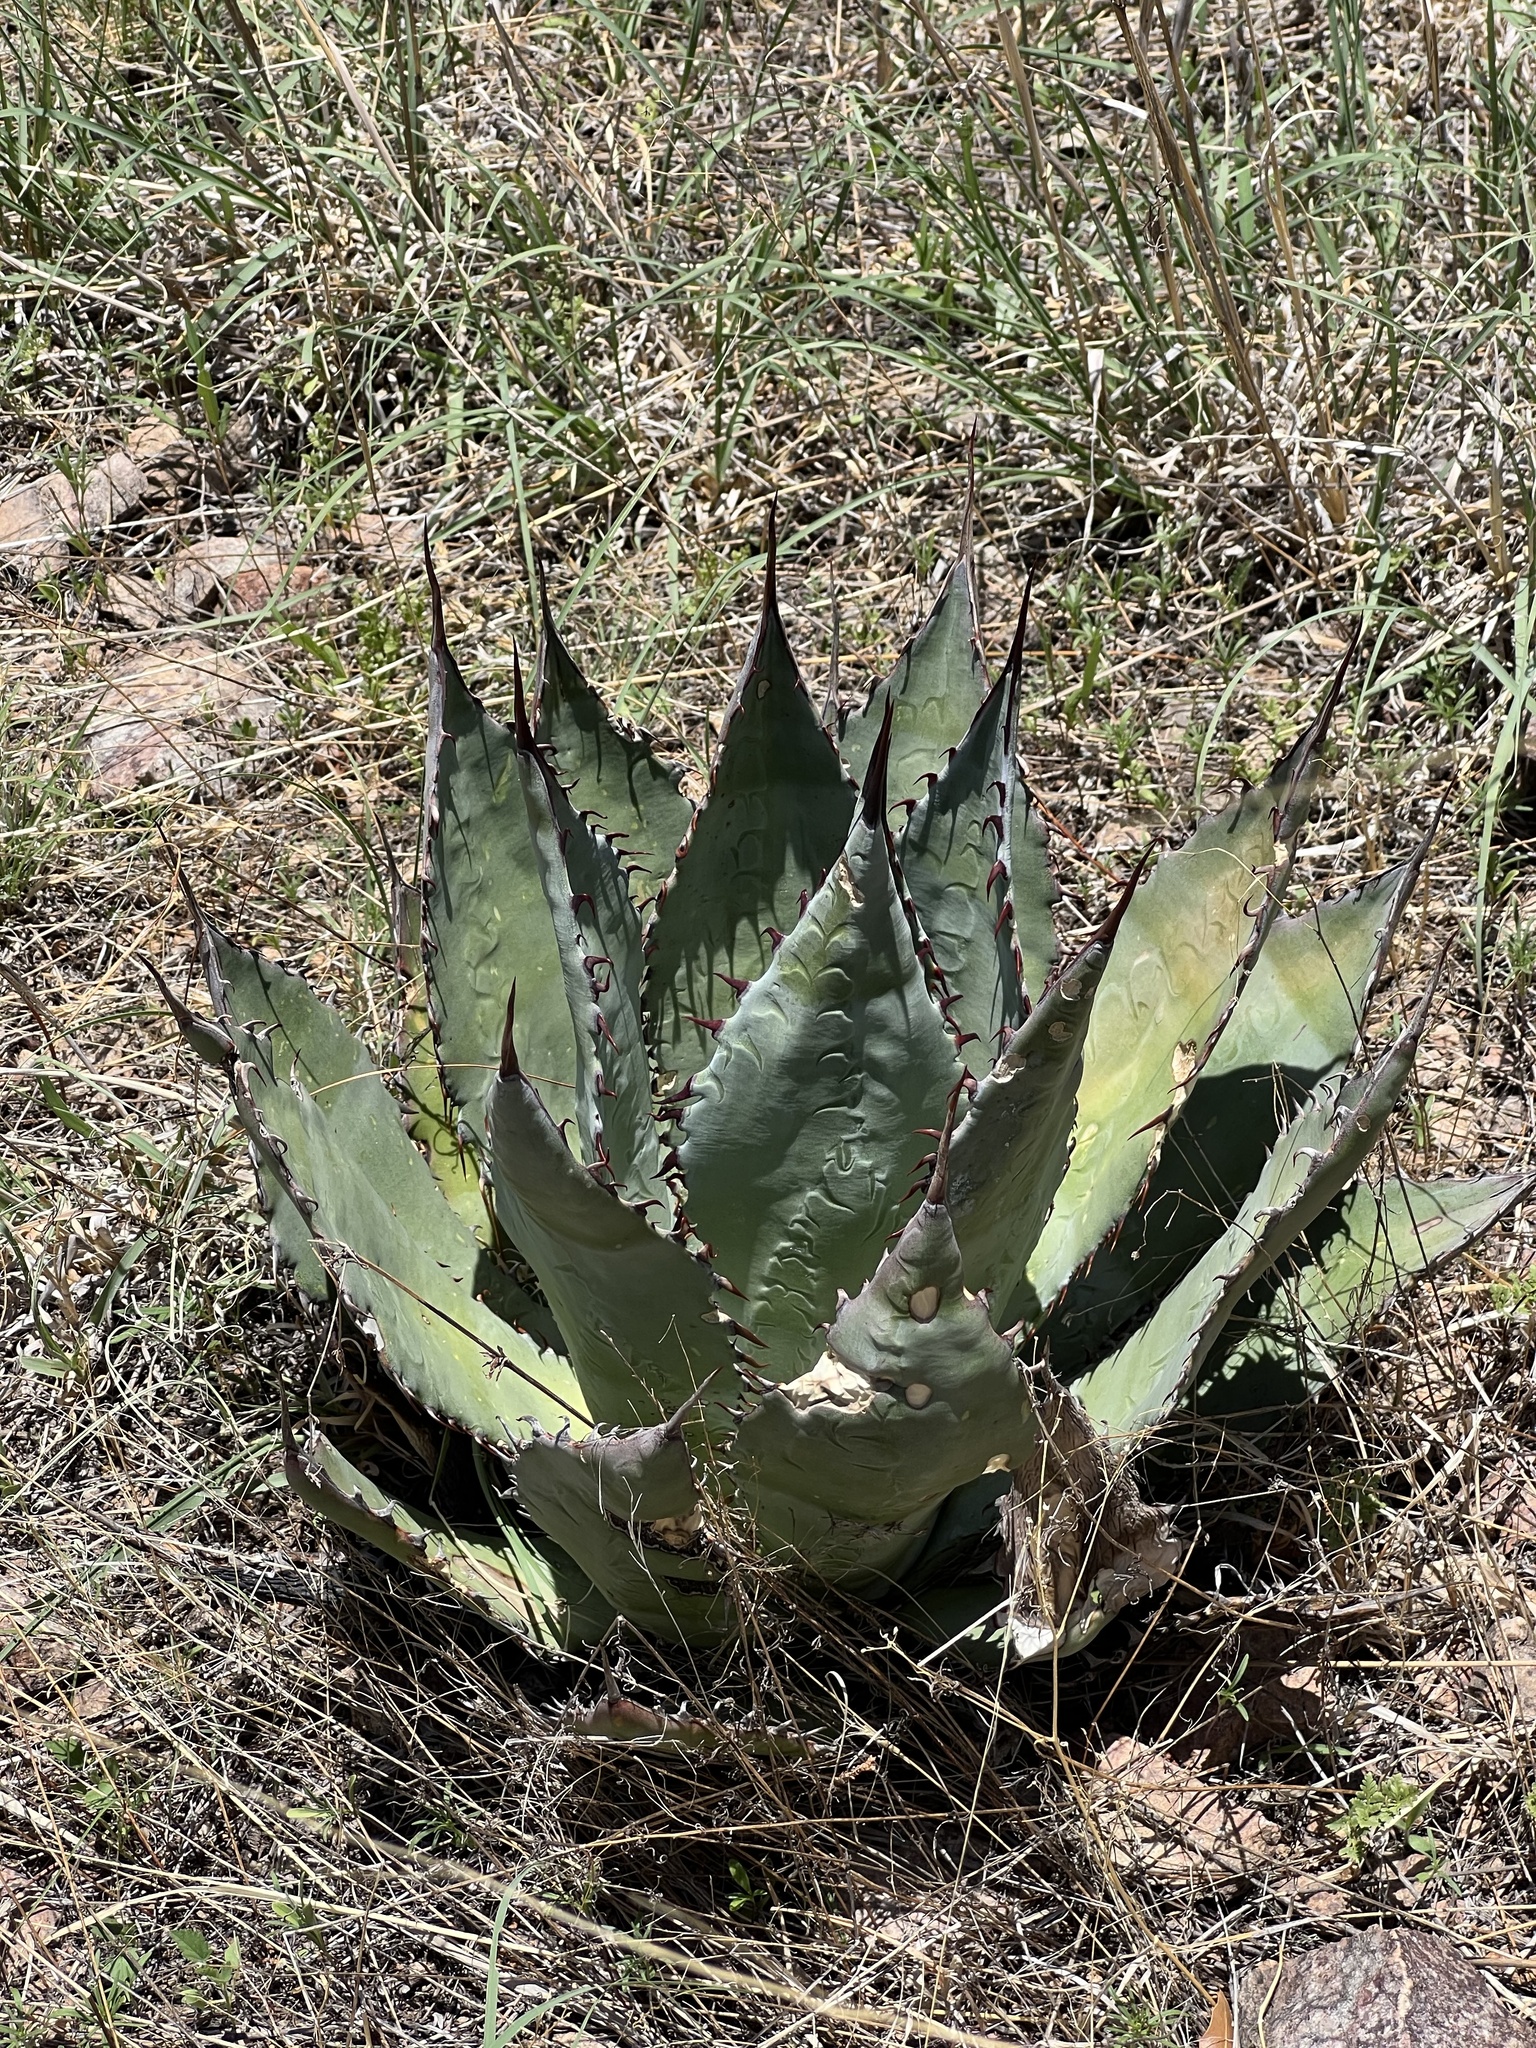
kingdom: Plantae
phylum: Tracheophyta
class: Liliopsida
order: Asparagales
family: Asparagaceae
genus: Agave
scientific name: Agave palmeri
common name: Palmer agave
